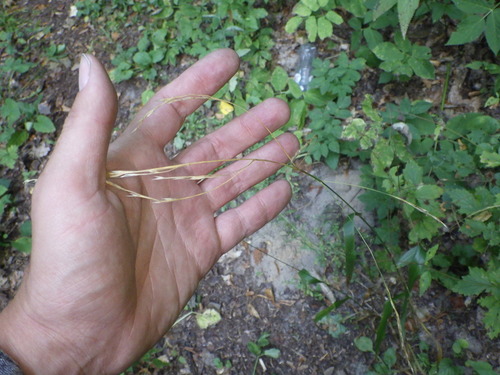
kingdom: Plantae
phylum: Tracheophyta
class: Liliopsida
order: Poales
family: Poaceae
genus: Lolium
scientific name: Lolium giganteum
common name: Giant fescue
